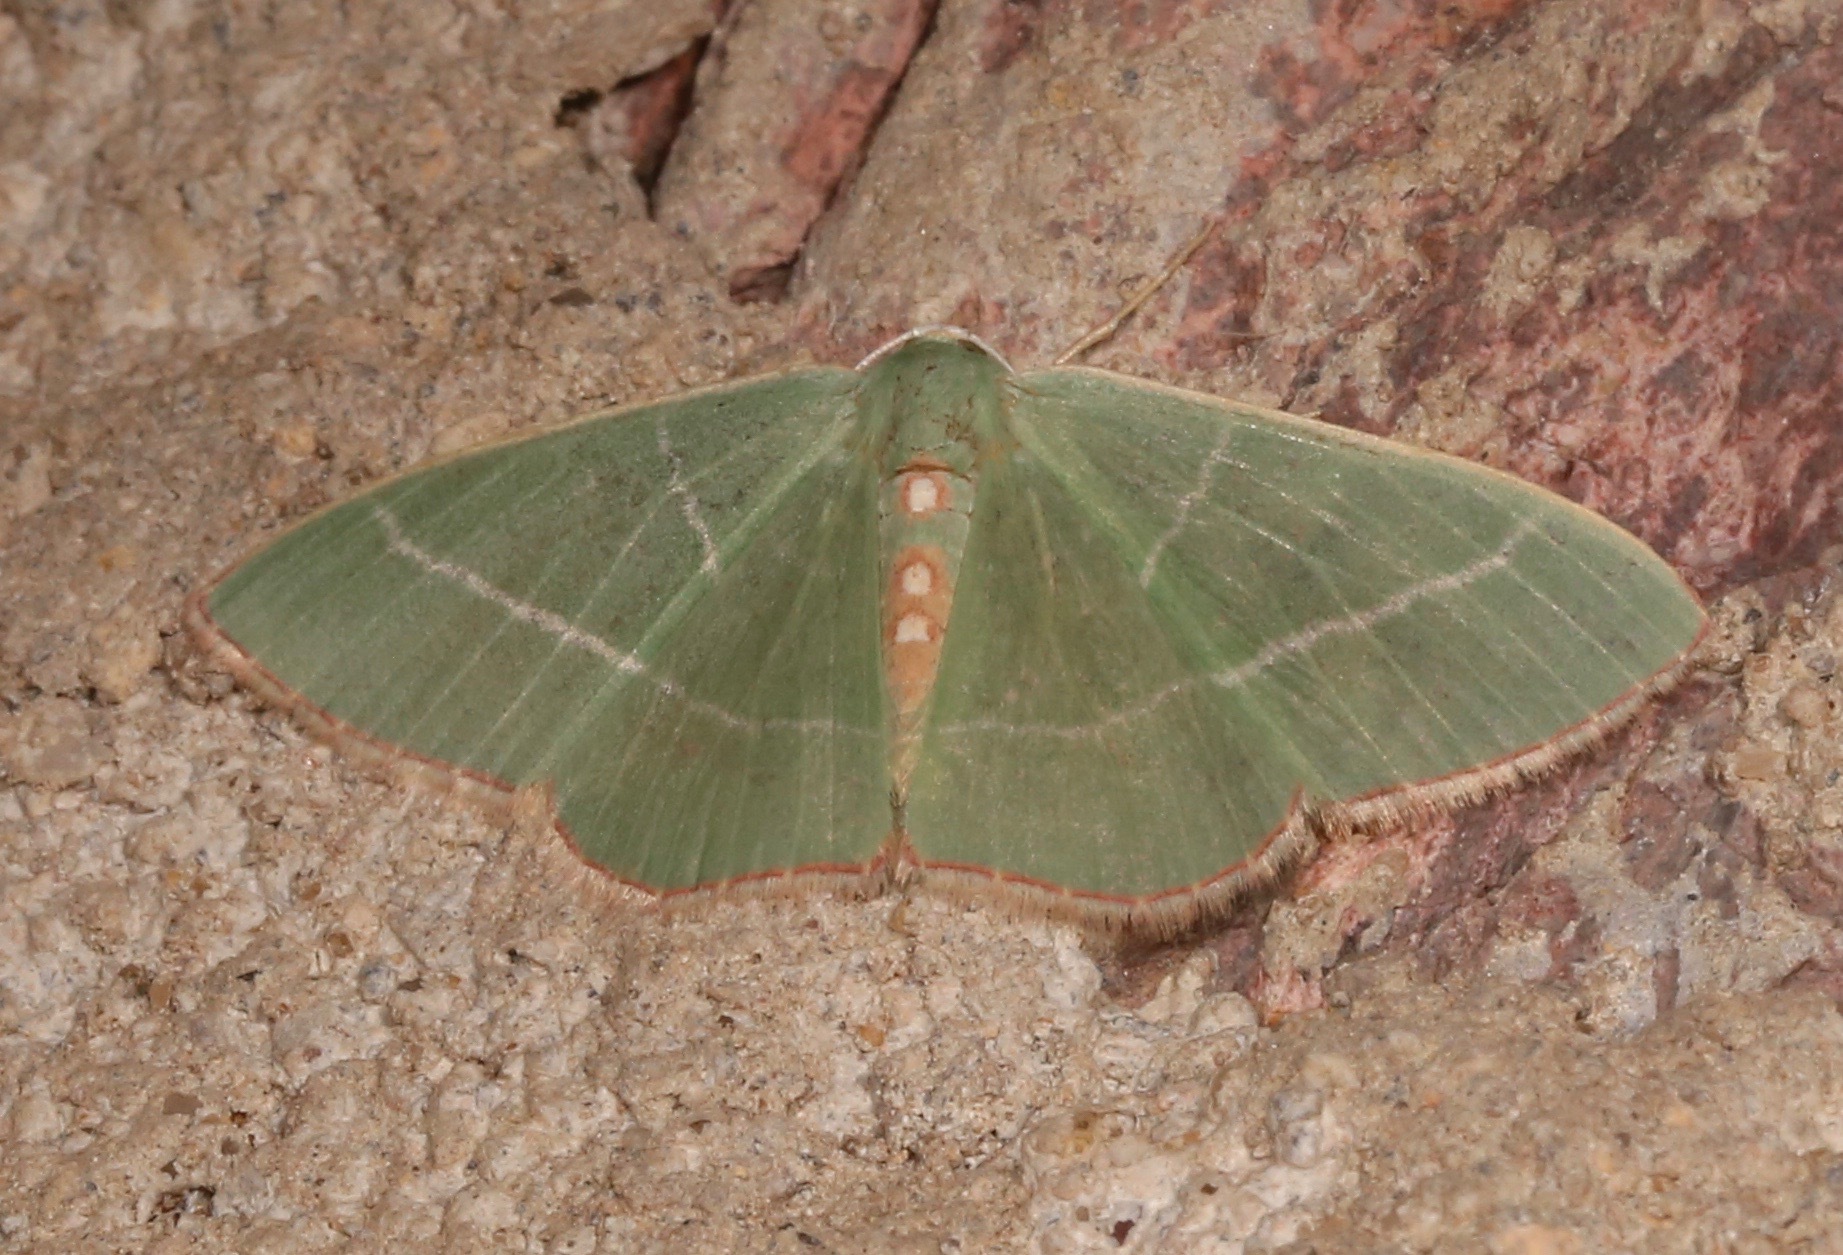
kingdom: Animalia
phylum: Arthropoda
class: Insecta
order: Lepidoptera
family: Geometridae
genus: Nemoria
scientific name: Nemoria obliqua
